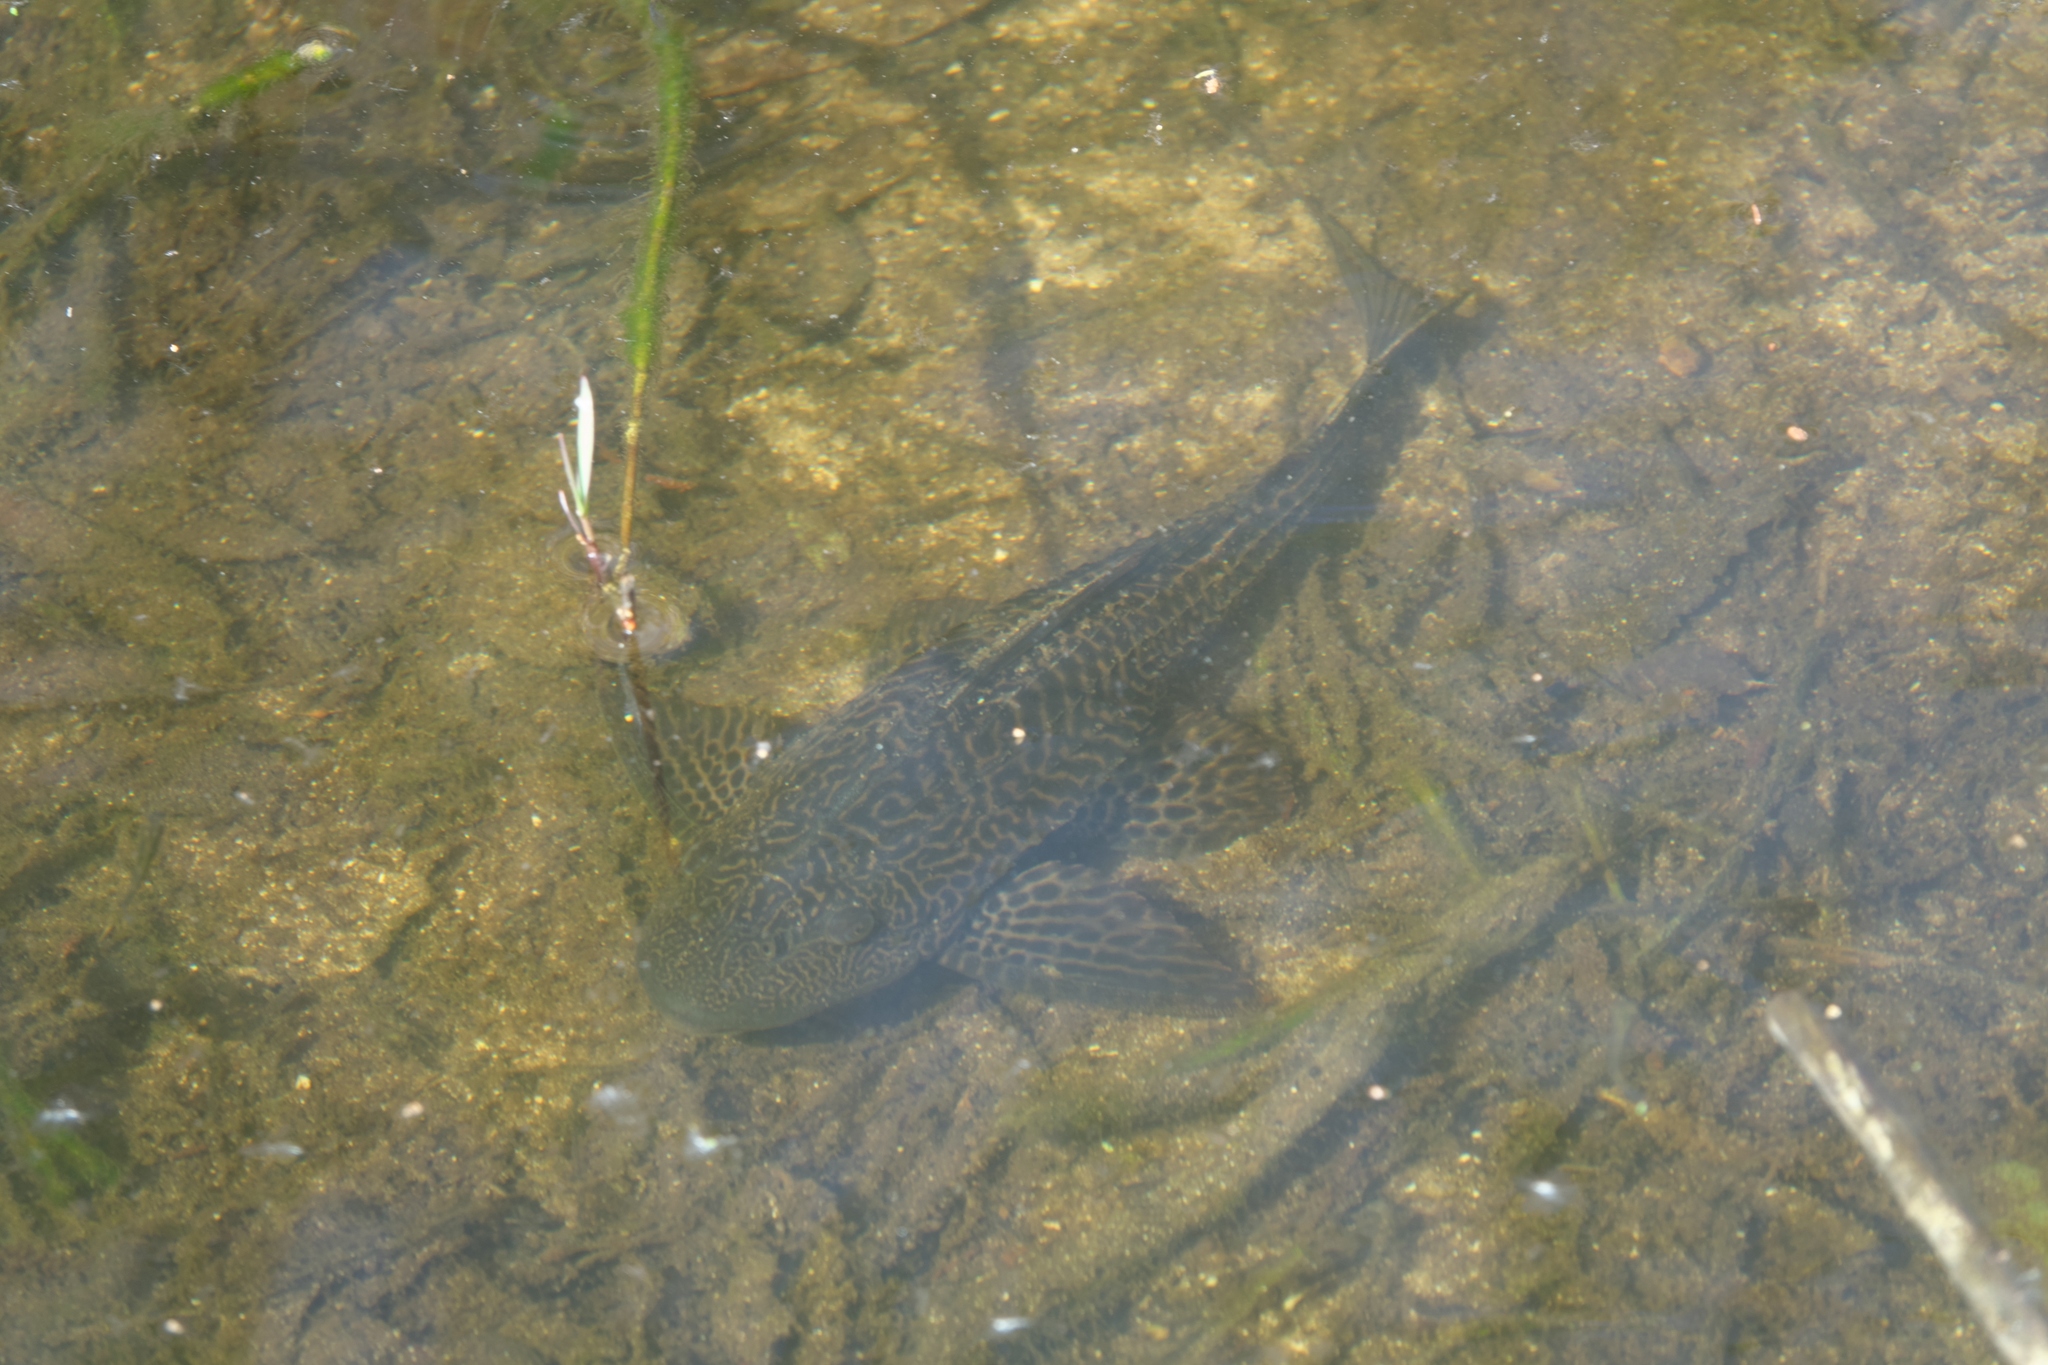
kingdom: Animalia
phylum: Chordata
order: Siluriformes
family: Loricariidae
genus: Pterygoplichthys
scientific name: Pterygoplichthys
